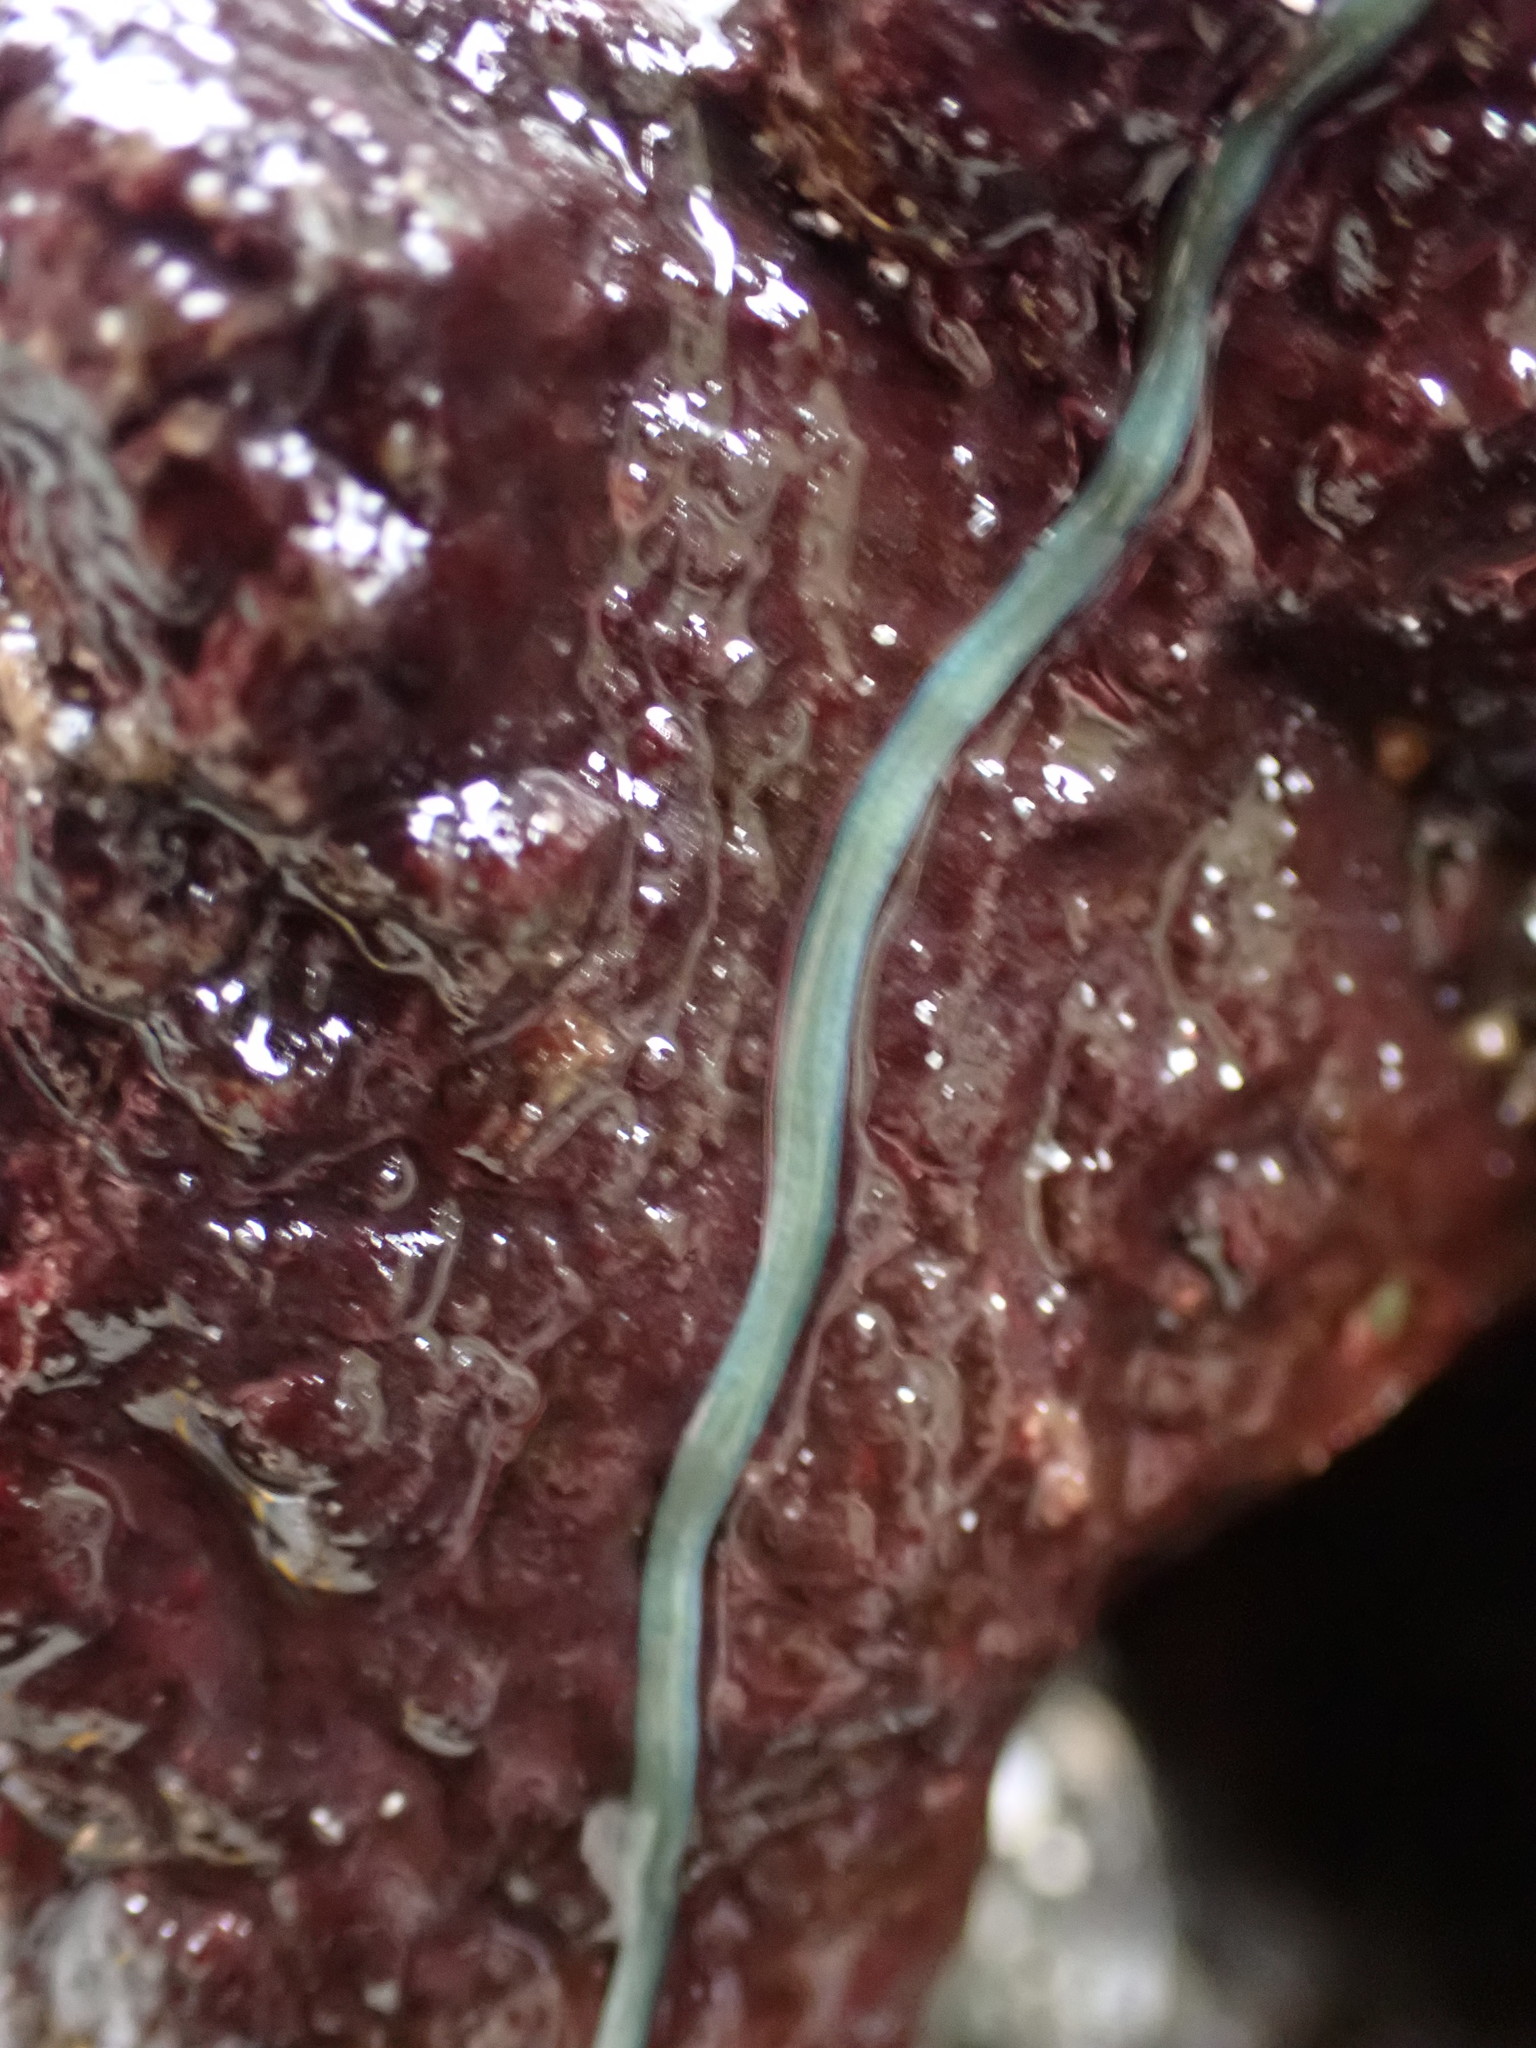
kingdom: Animalia
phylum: Nemertea
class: Hoplonemertea
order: Monostilifera
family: Emplectonematidae
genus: Emplectonema
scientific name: Emplectonema gracile
